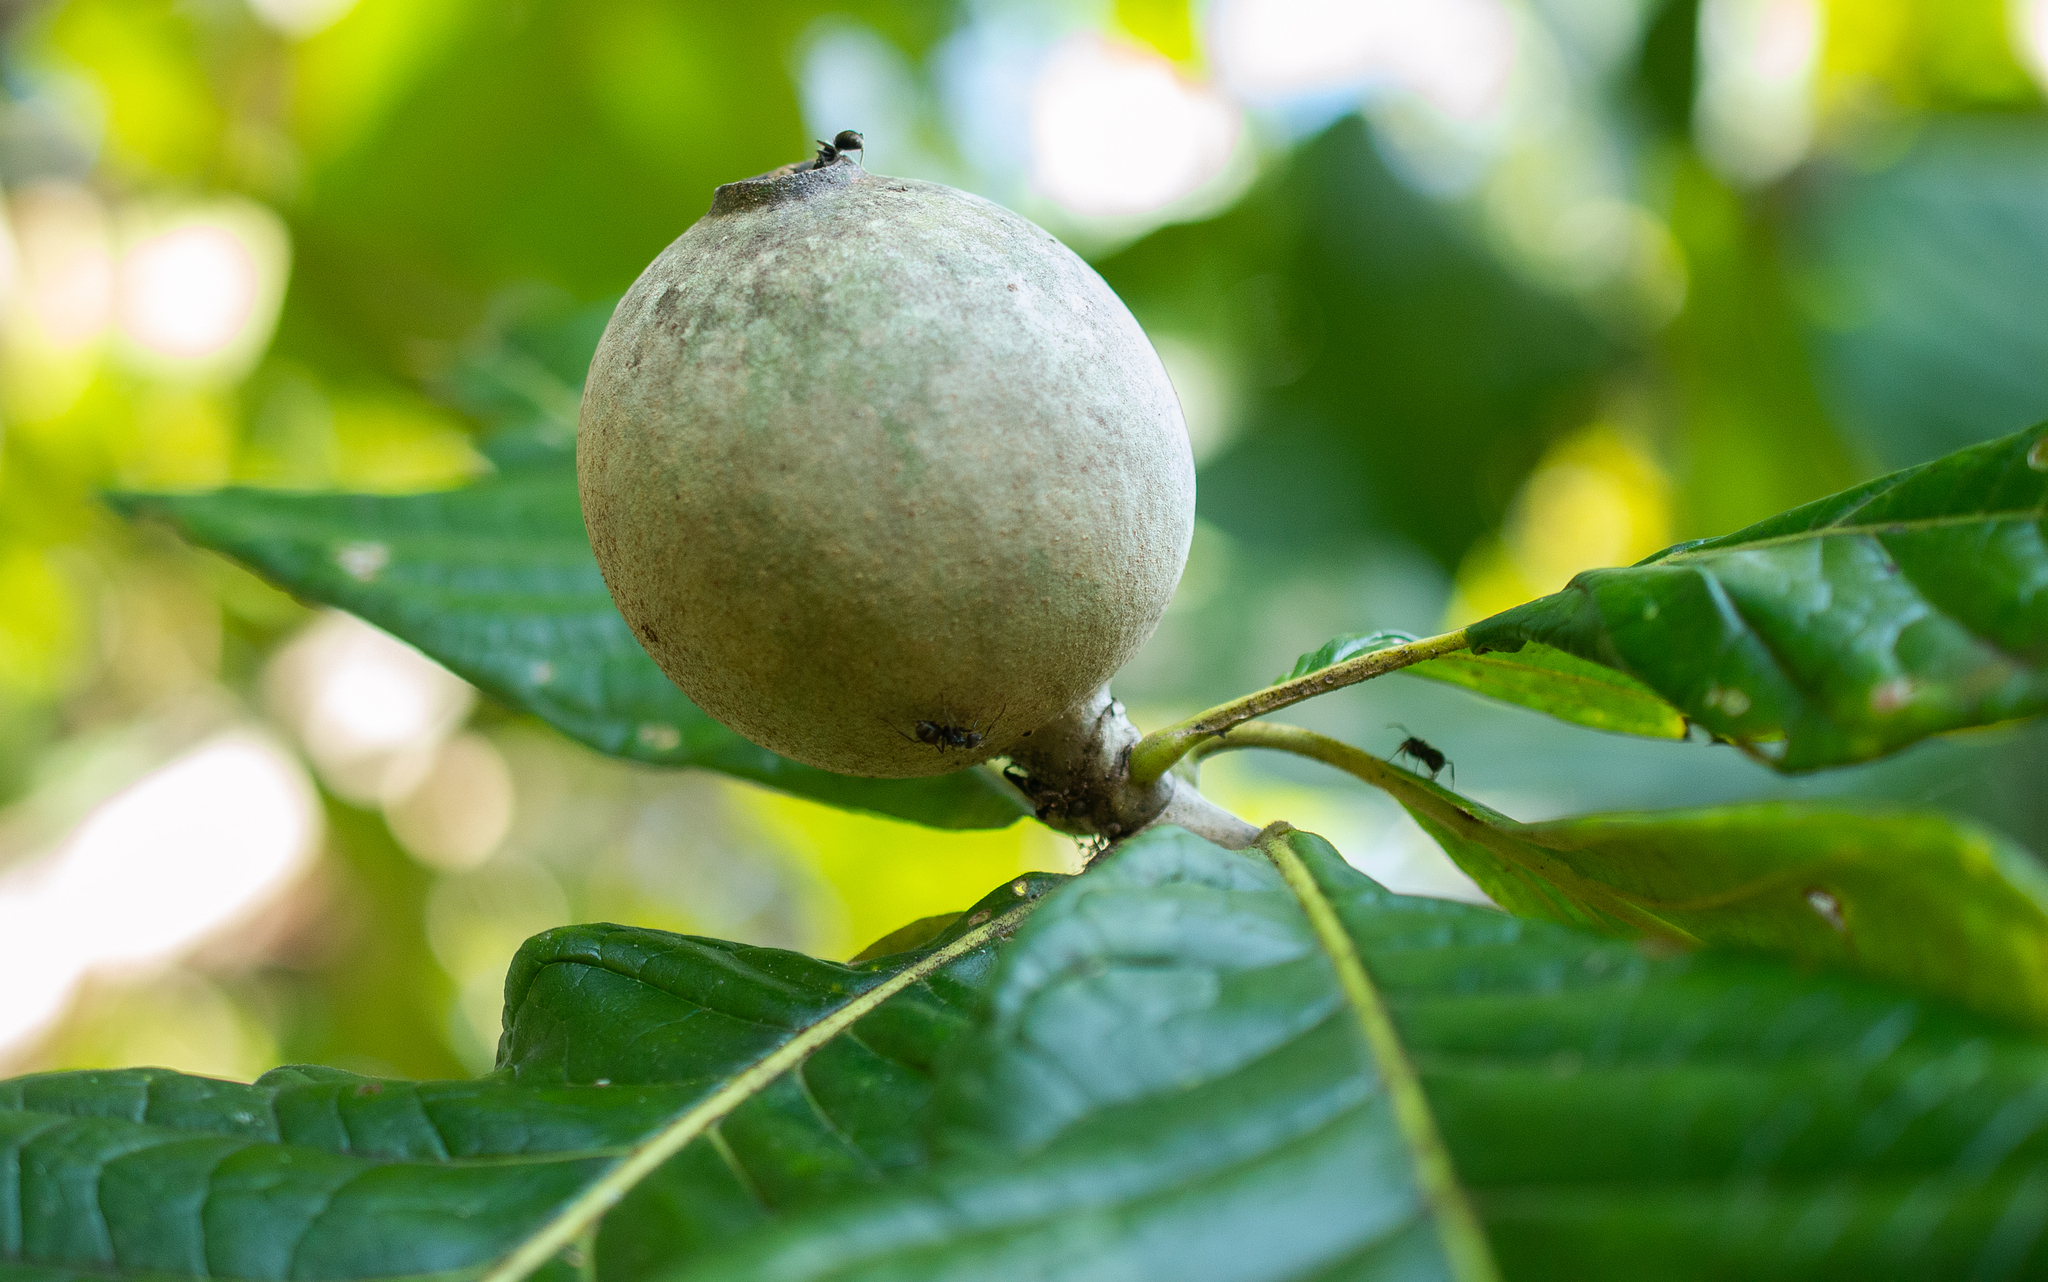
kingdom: Plantae
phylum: Tracheophyta
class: Magnoliopsida
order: Gentianales
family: Rubiaceae
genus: Genipa
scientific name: Genipa americana
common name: Genipap
